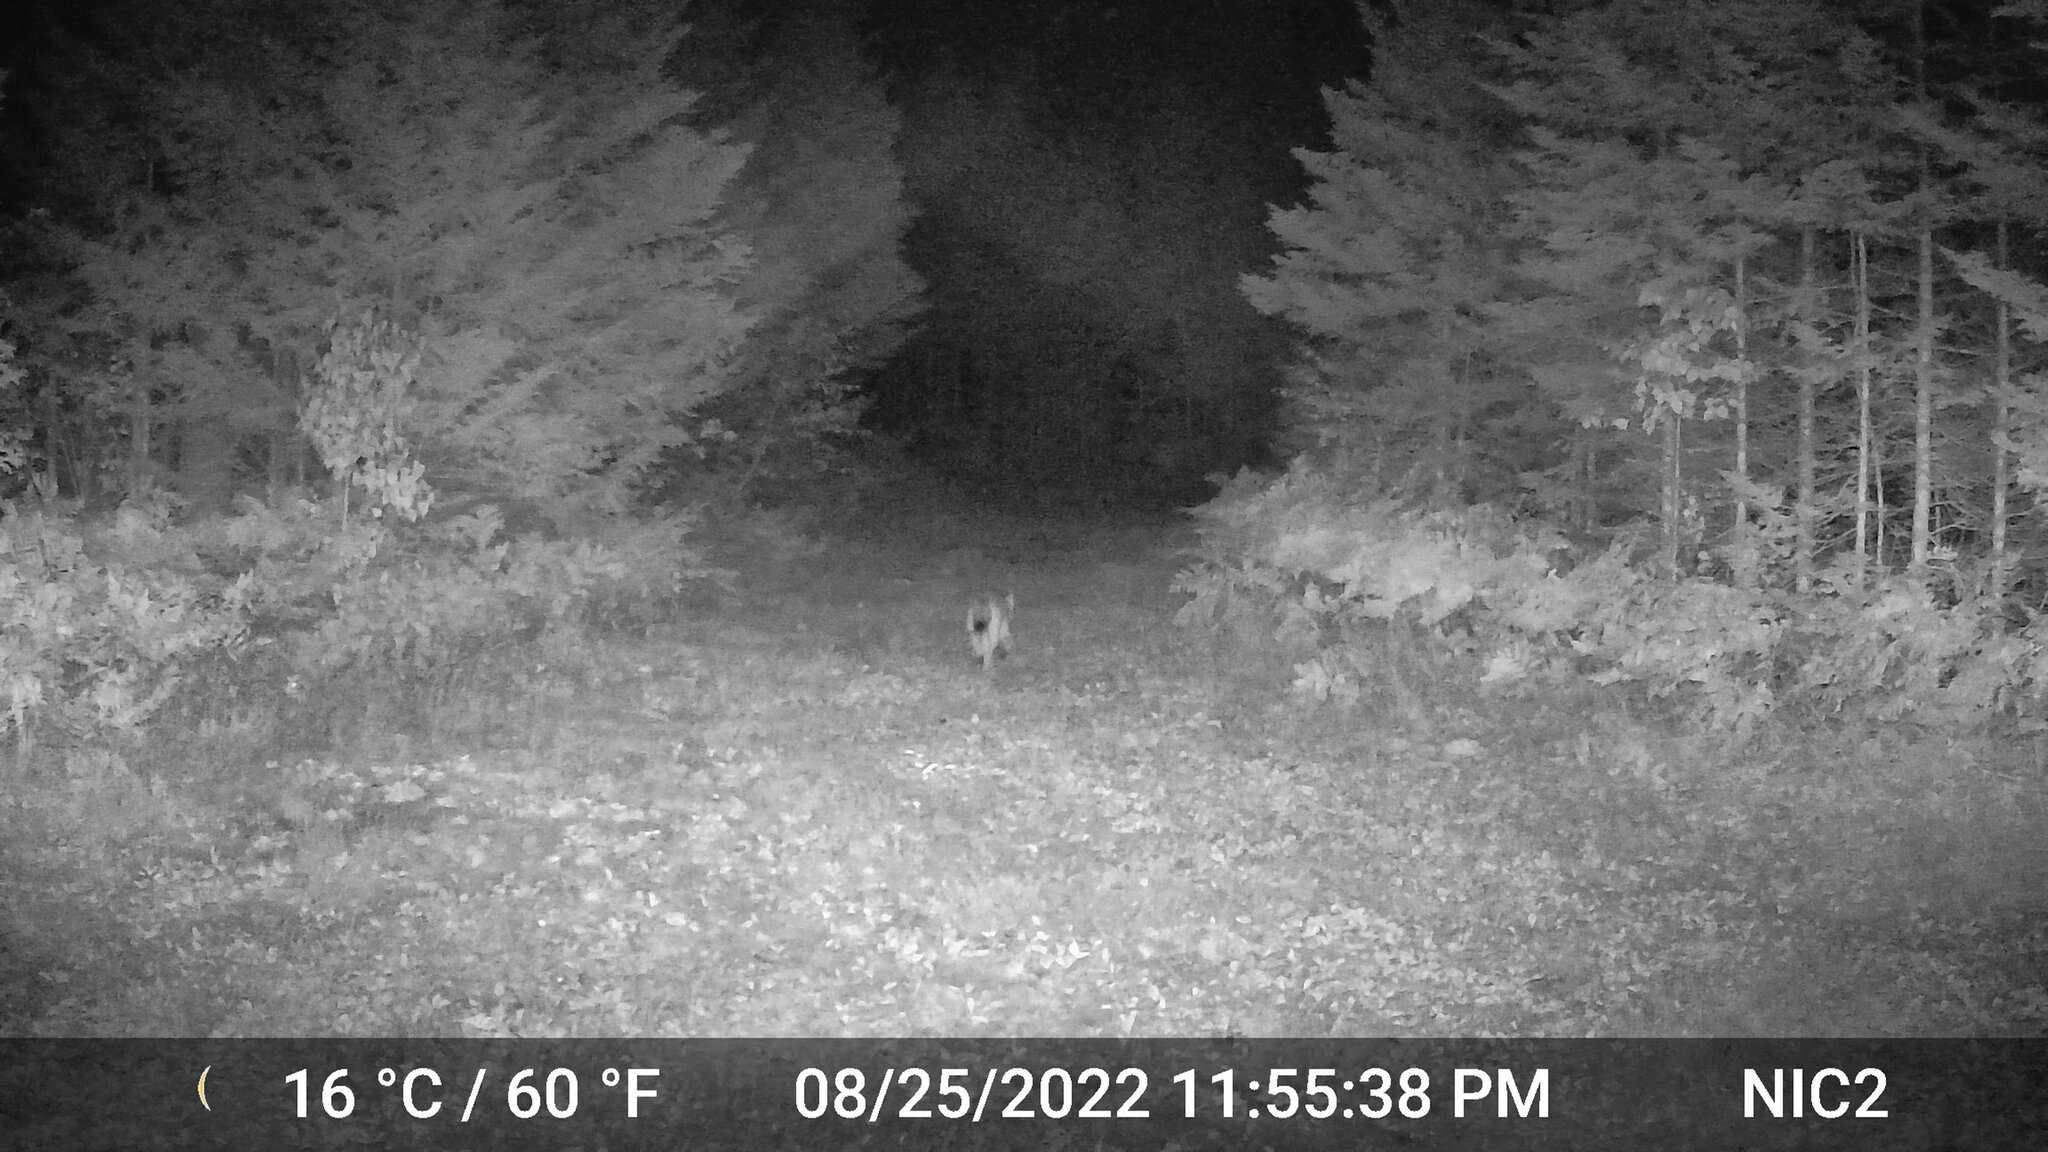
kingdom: Animalia
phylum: Chordata
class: Mammalia
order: Carnivora
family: Canidae
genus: Vulpes
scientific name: Vulpes vulpes
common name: Red fox
